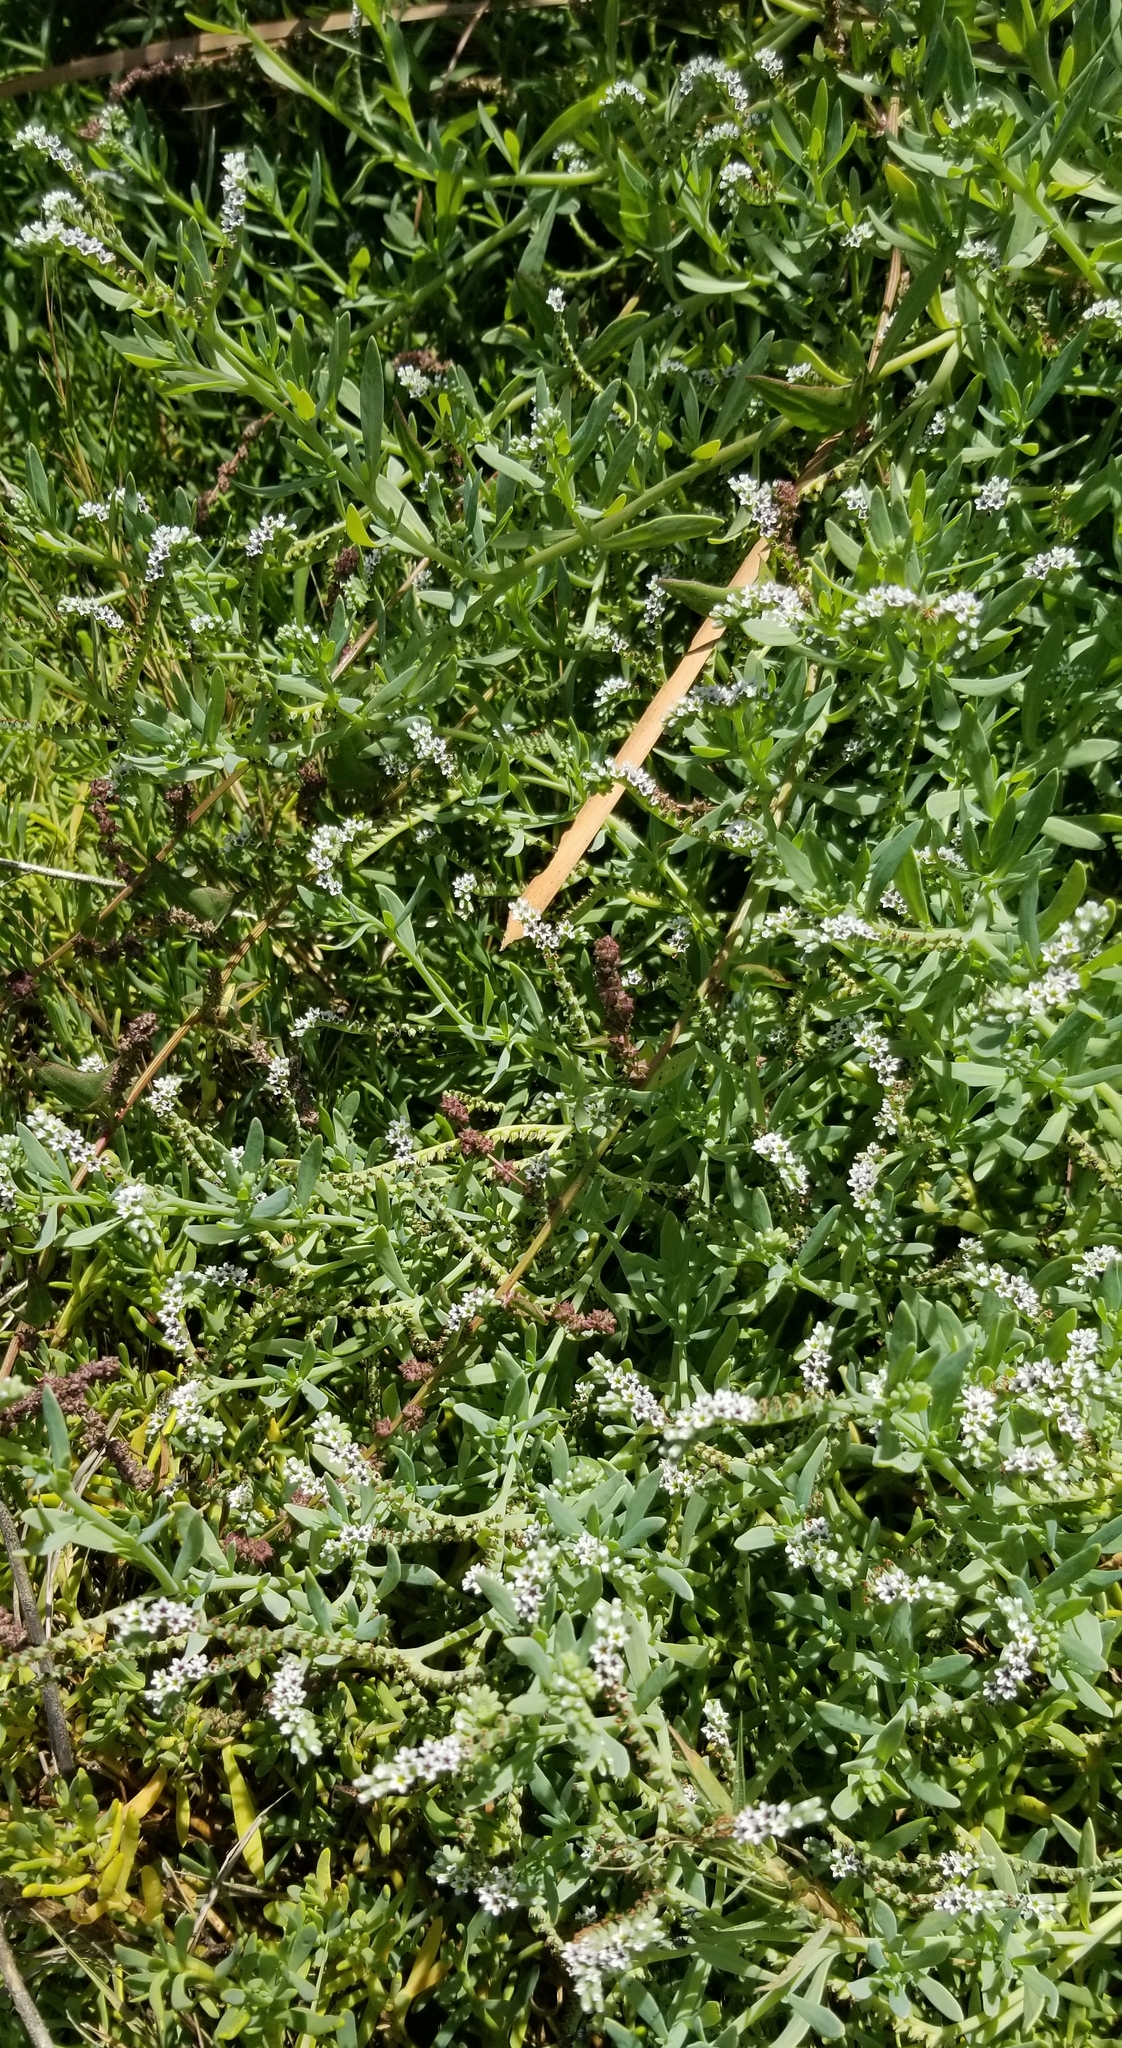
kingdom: Plantae
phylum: Tracheophyta
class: Magnoliopsida
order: Boraginales
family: Heliotropiaceae
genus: Heliotropium
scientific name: Heliotropium curassavicum
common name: Seaside heliotrope
